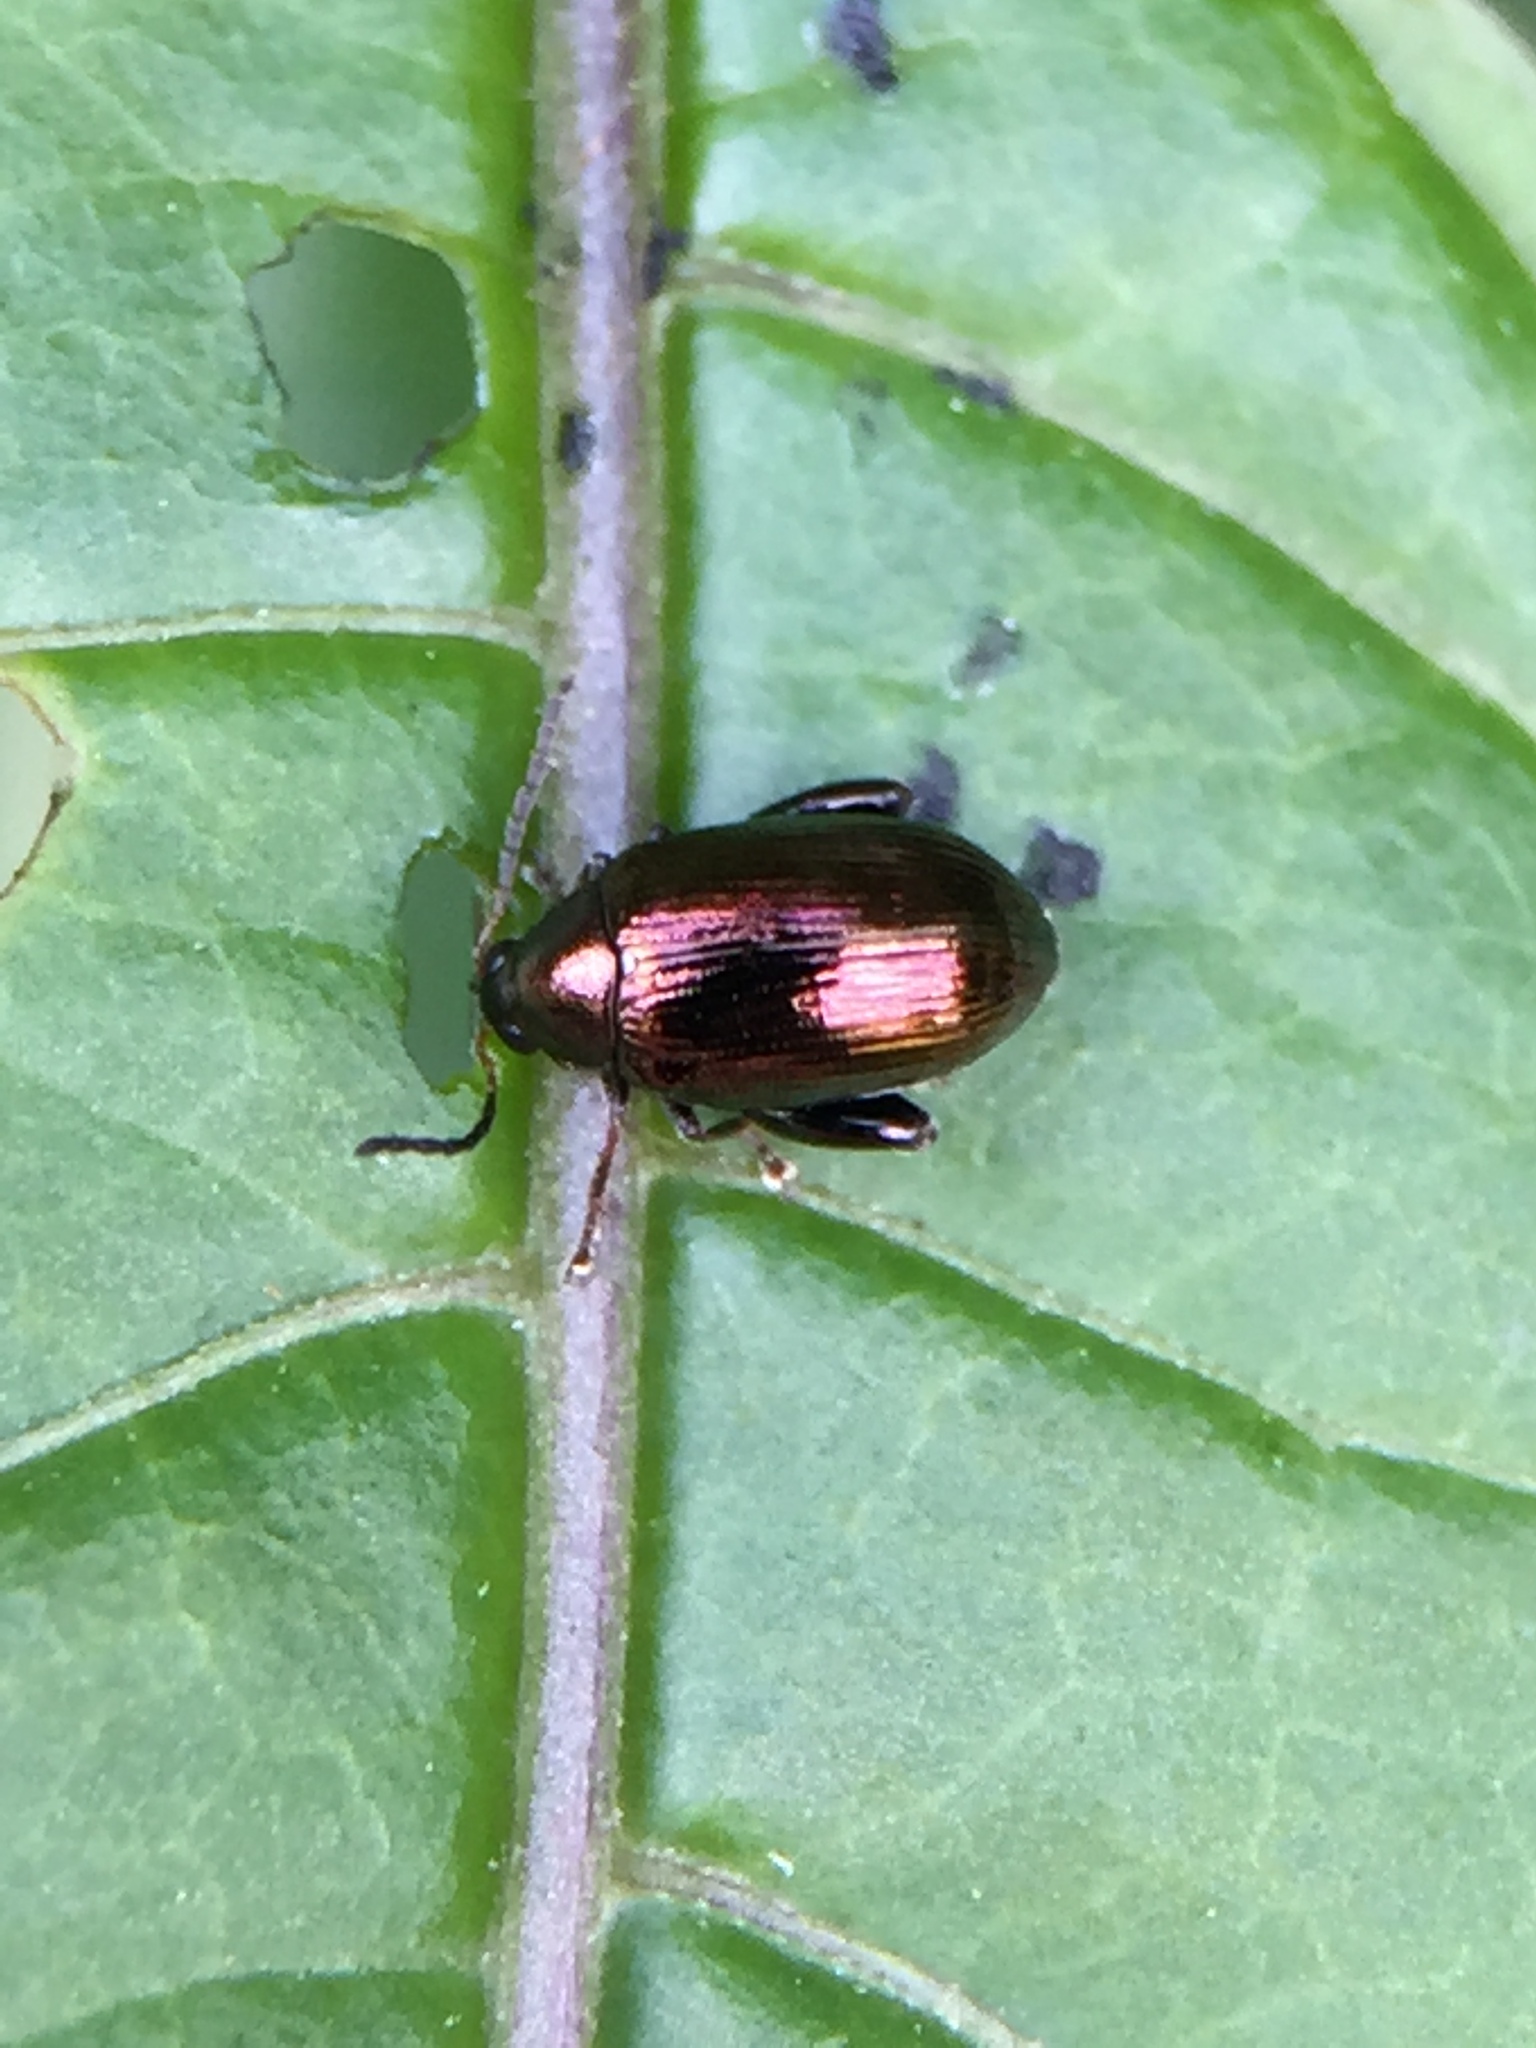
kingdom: Animalia
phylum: Arthropoda
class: Insecta
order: Coleoptera
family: Chrysomelidae
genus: Psylliodes
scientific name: Psylliodes brettinghami
